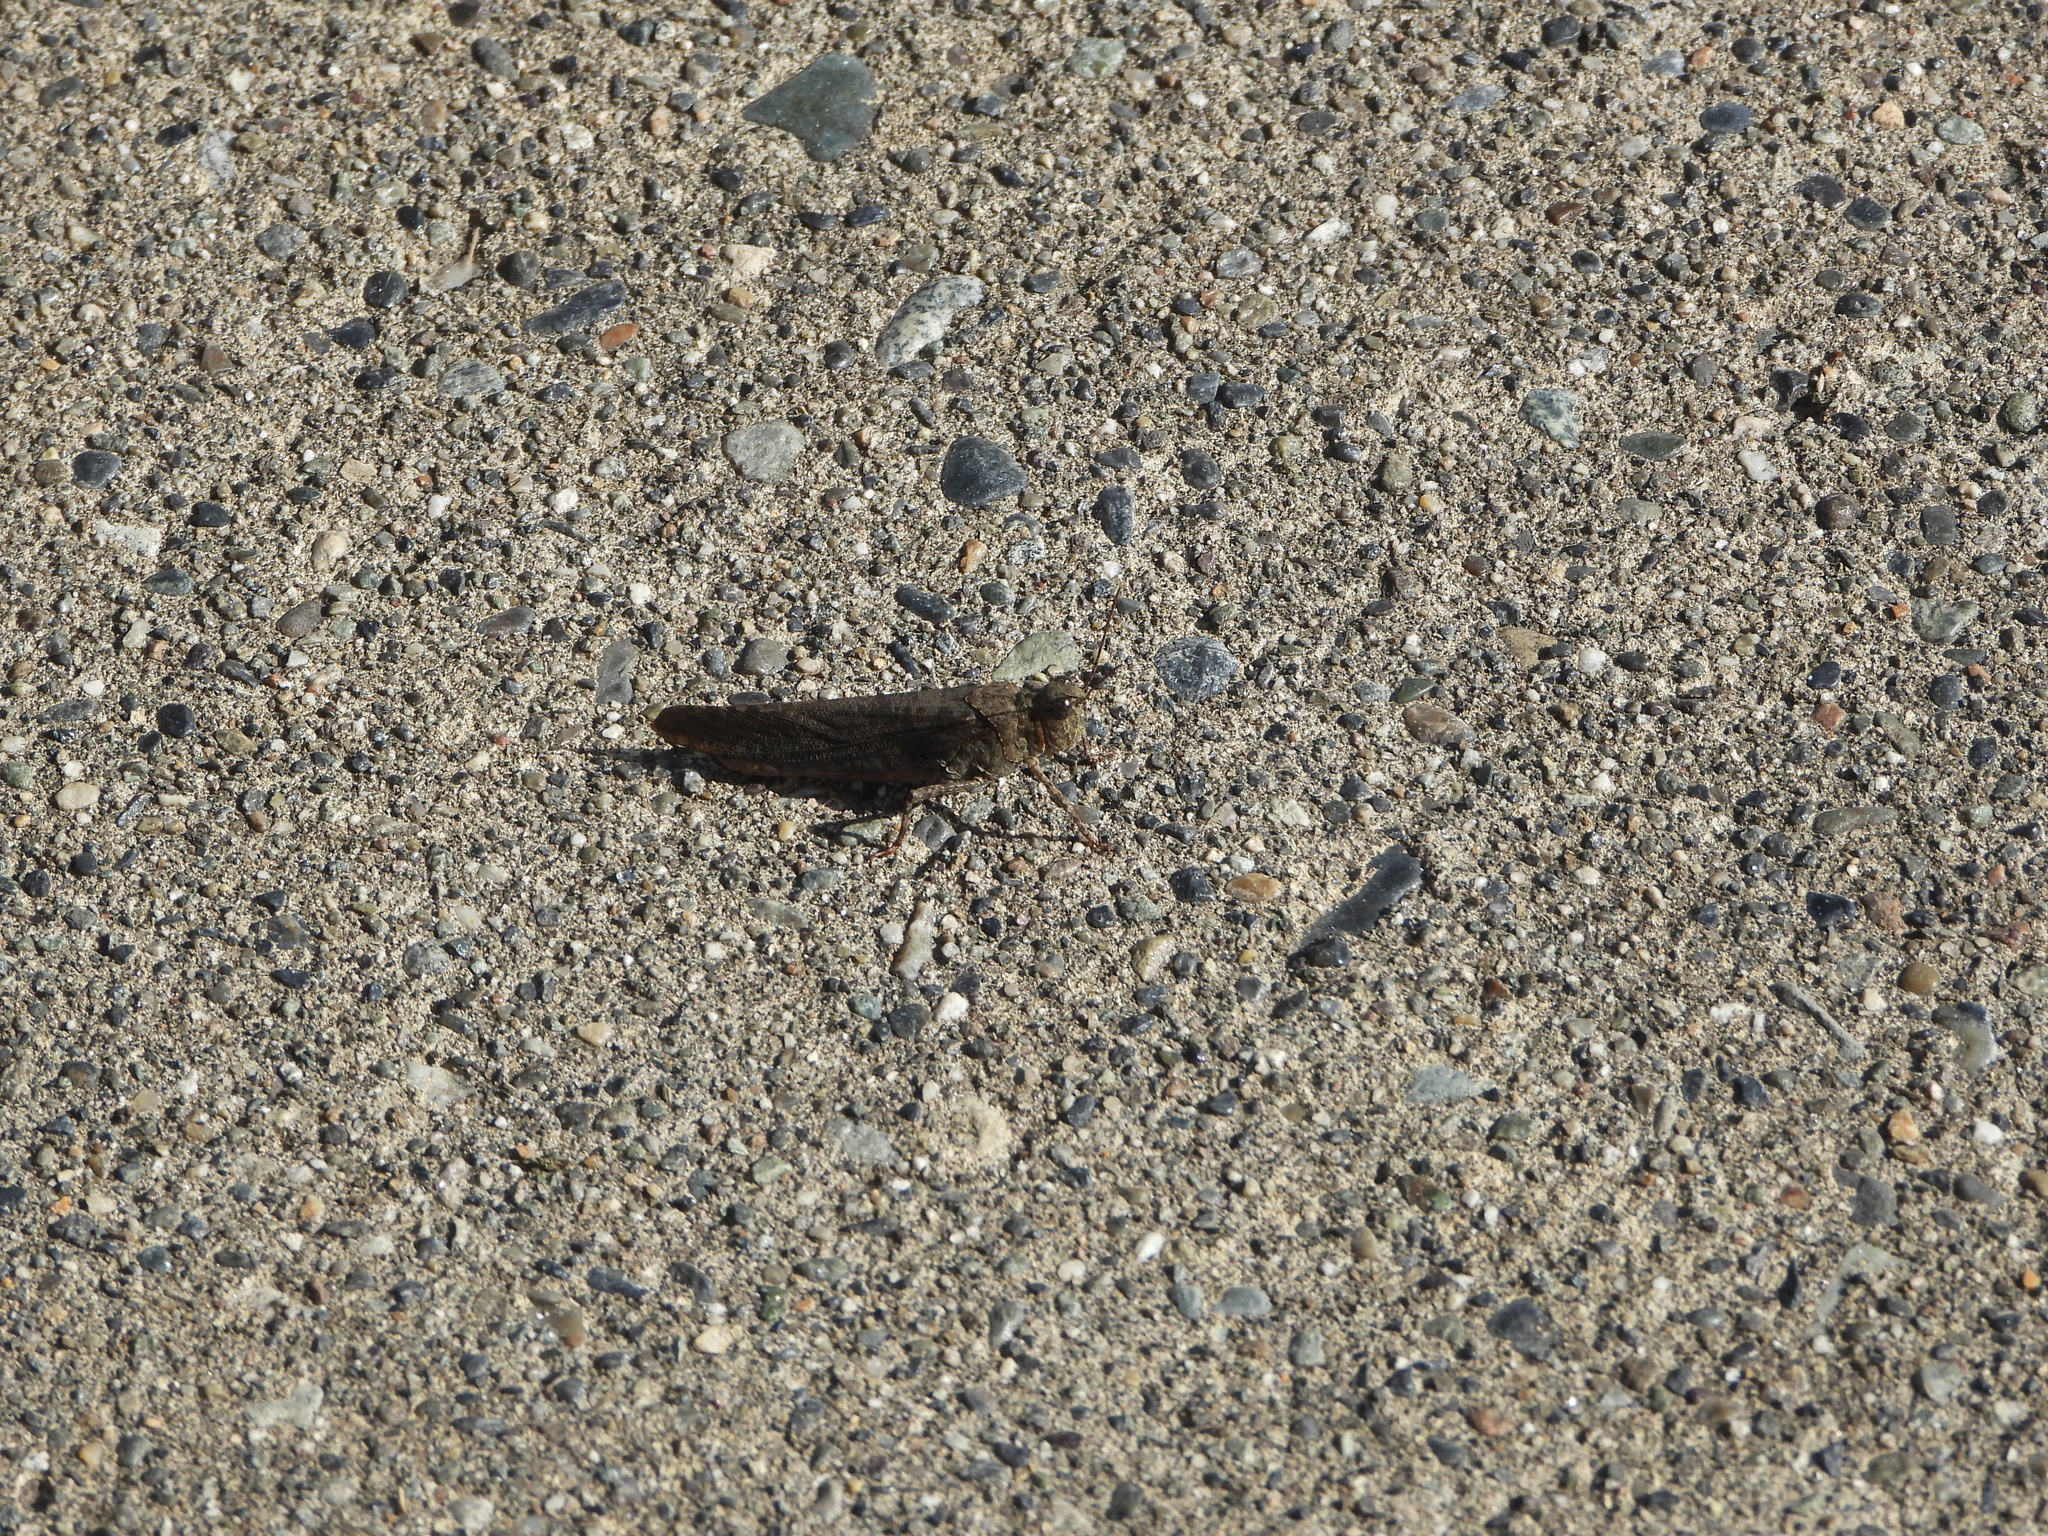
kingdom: Animalia
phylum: Arthropoda
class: Insecta
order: Orthoptera
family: Acrididae
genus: Trimerotropis
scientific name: Trimerotropis verruculata
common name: Crackling forest grasshopper
